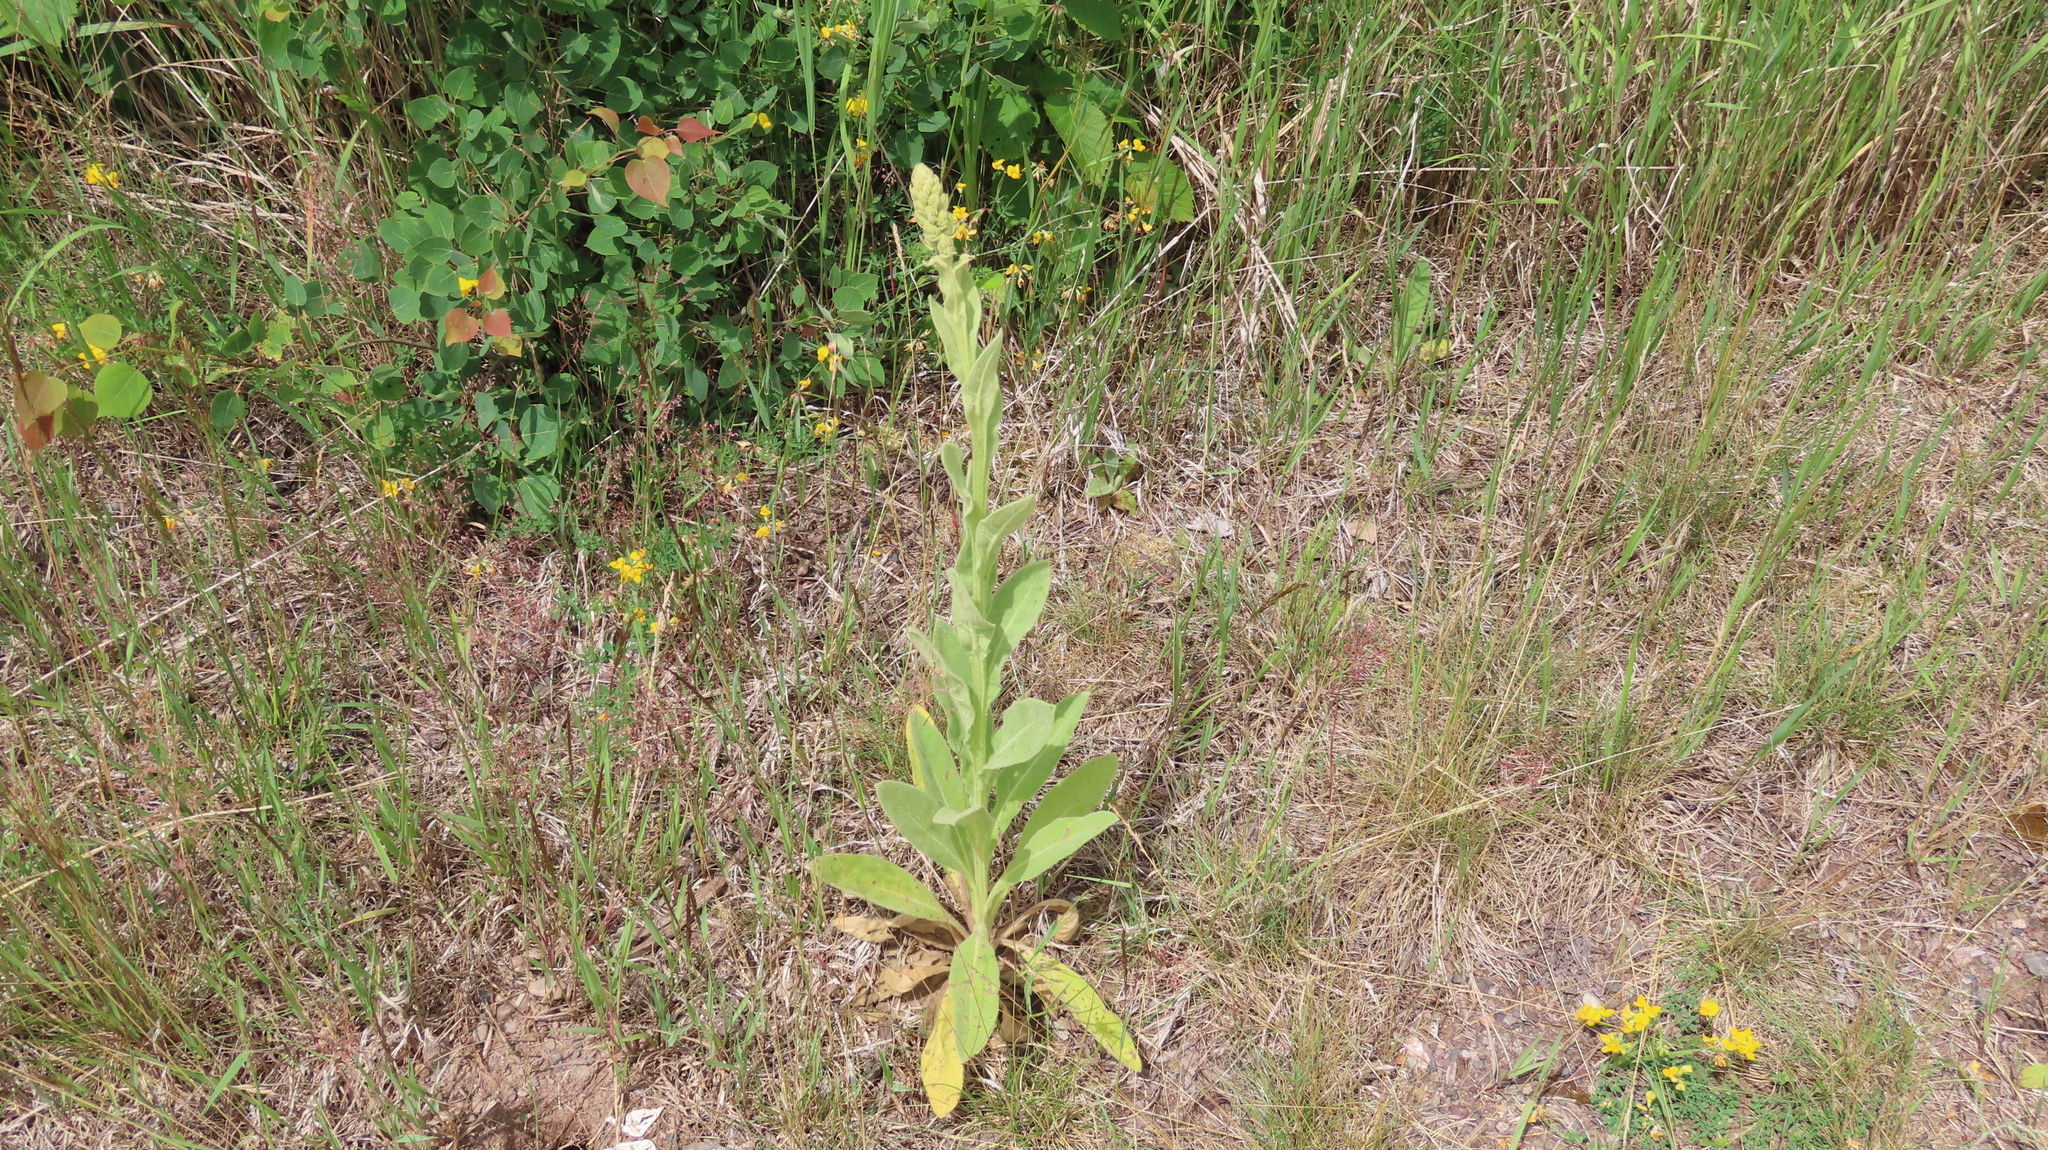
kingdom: Plantae
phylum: Tracheophyta
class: Magnoliopsida
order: Lamiales
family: Scrophulariaceae
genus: Verbascum
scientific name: Verbascum thapsus
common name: Common mullein
